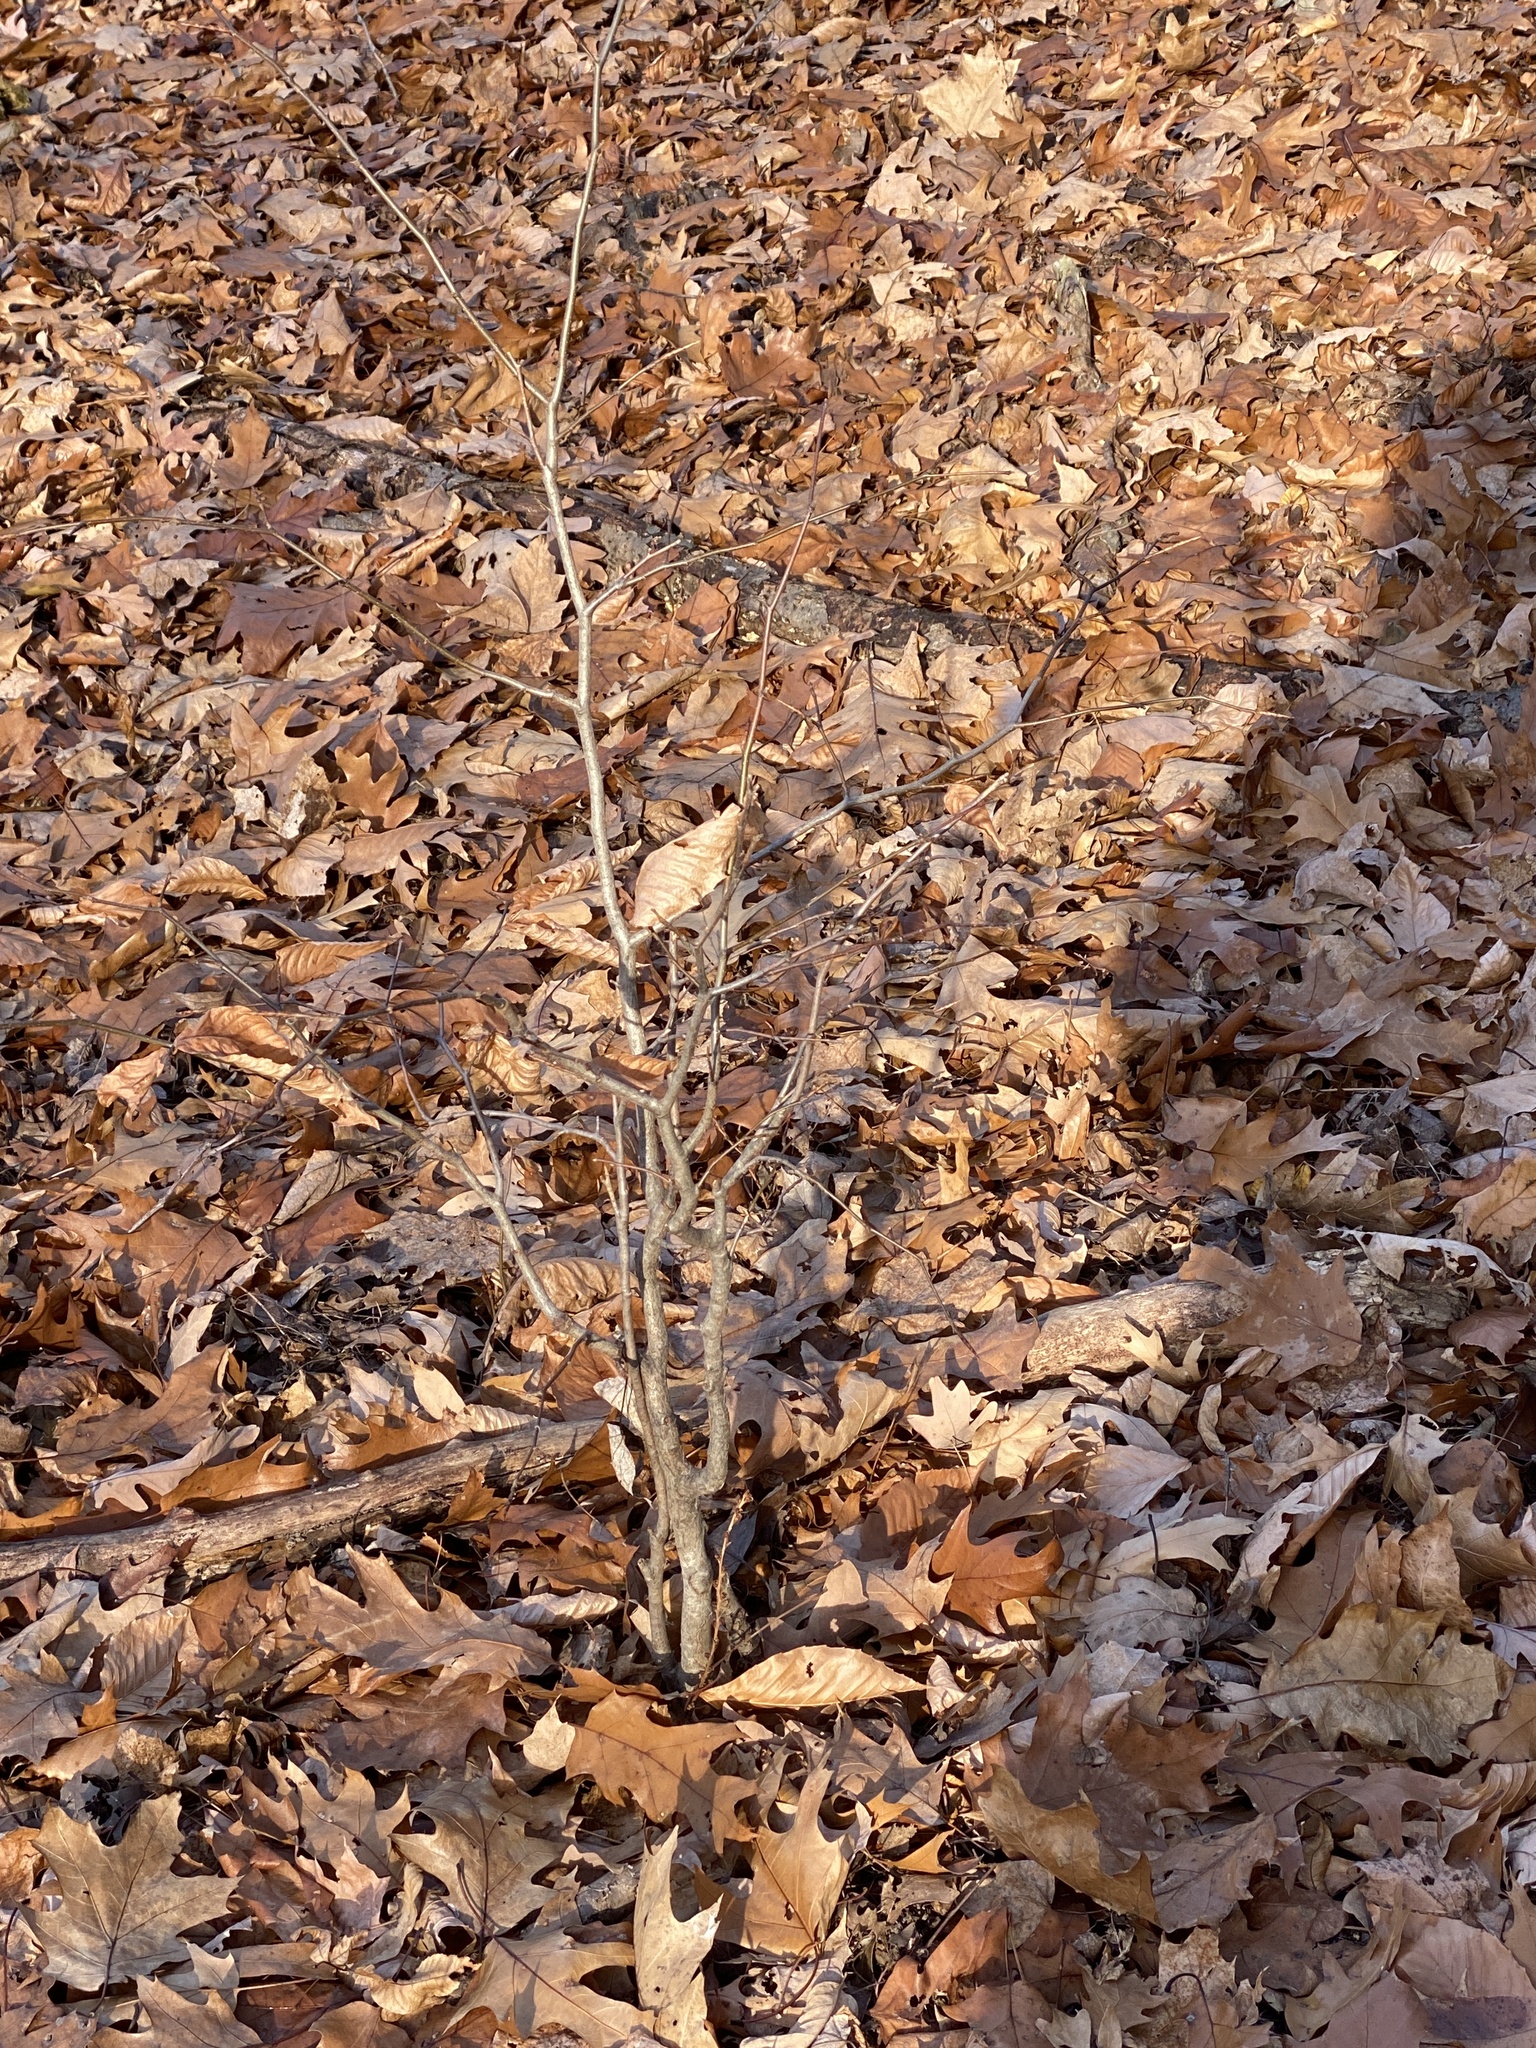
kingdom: Plantae
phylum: Tracheophyta
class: Magnoliopsida
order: Fagales
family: Fagaceae
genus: Fagus
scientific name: Fagus grandifolia
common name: American beech
